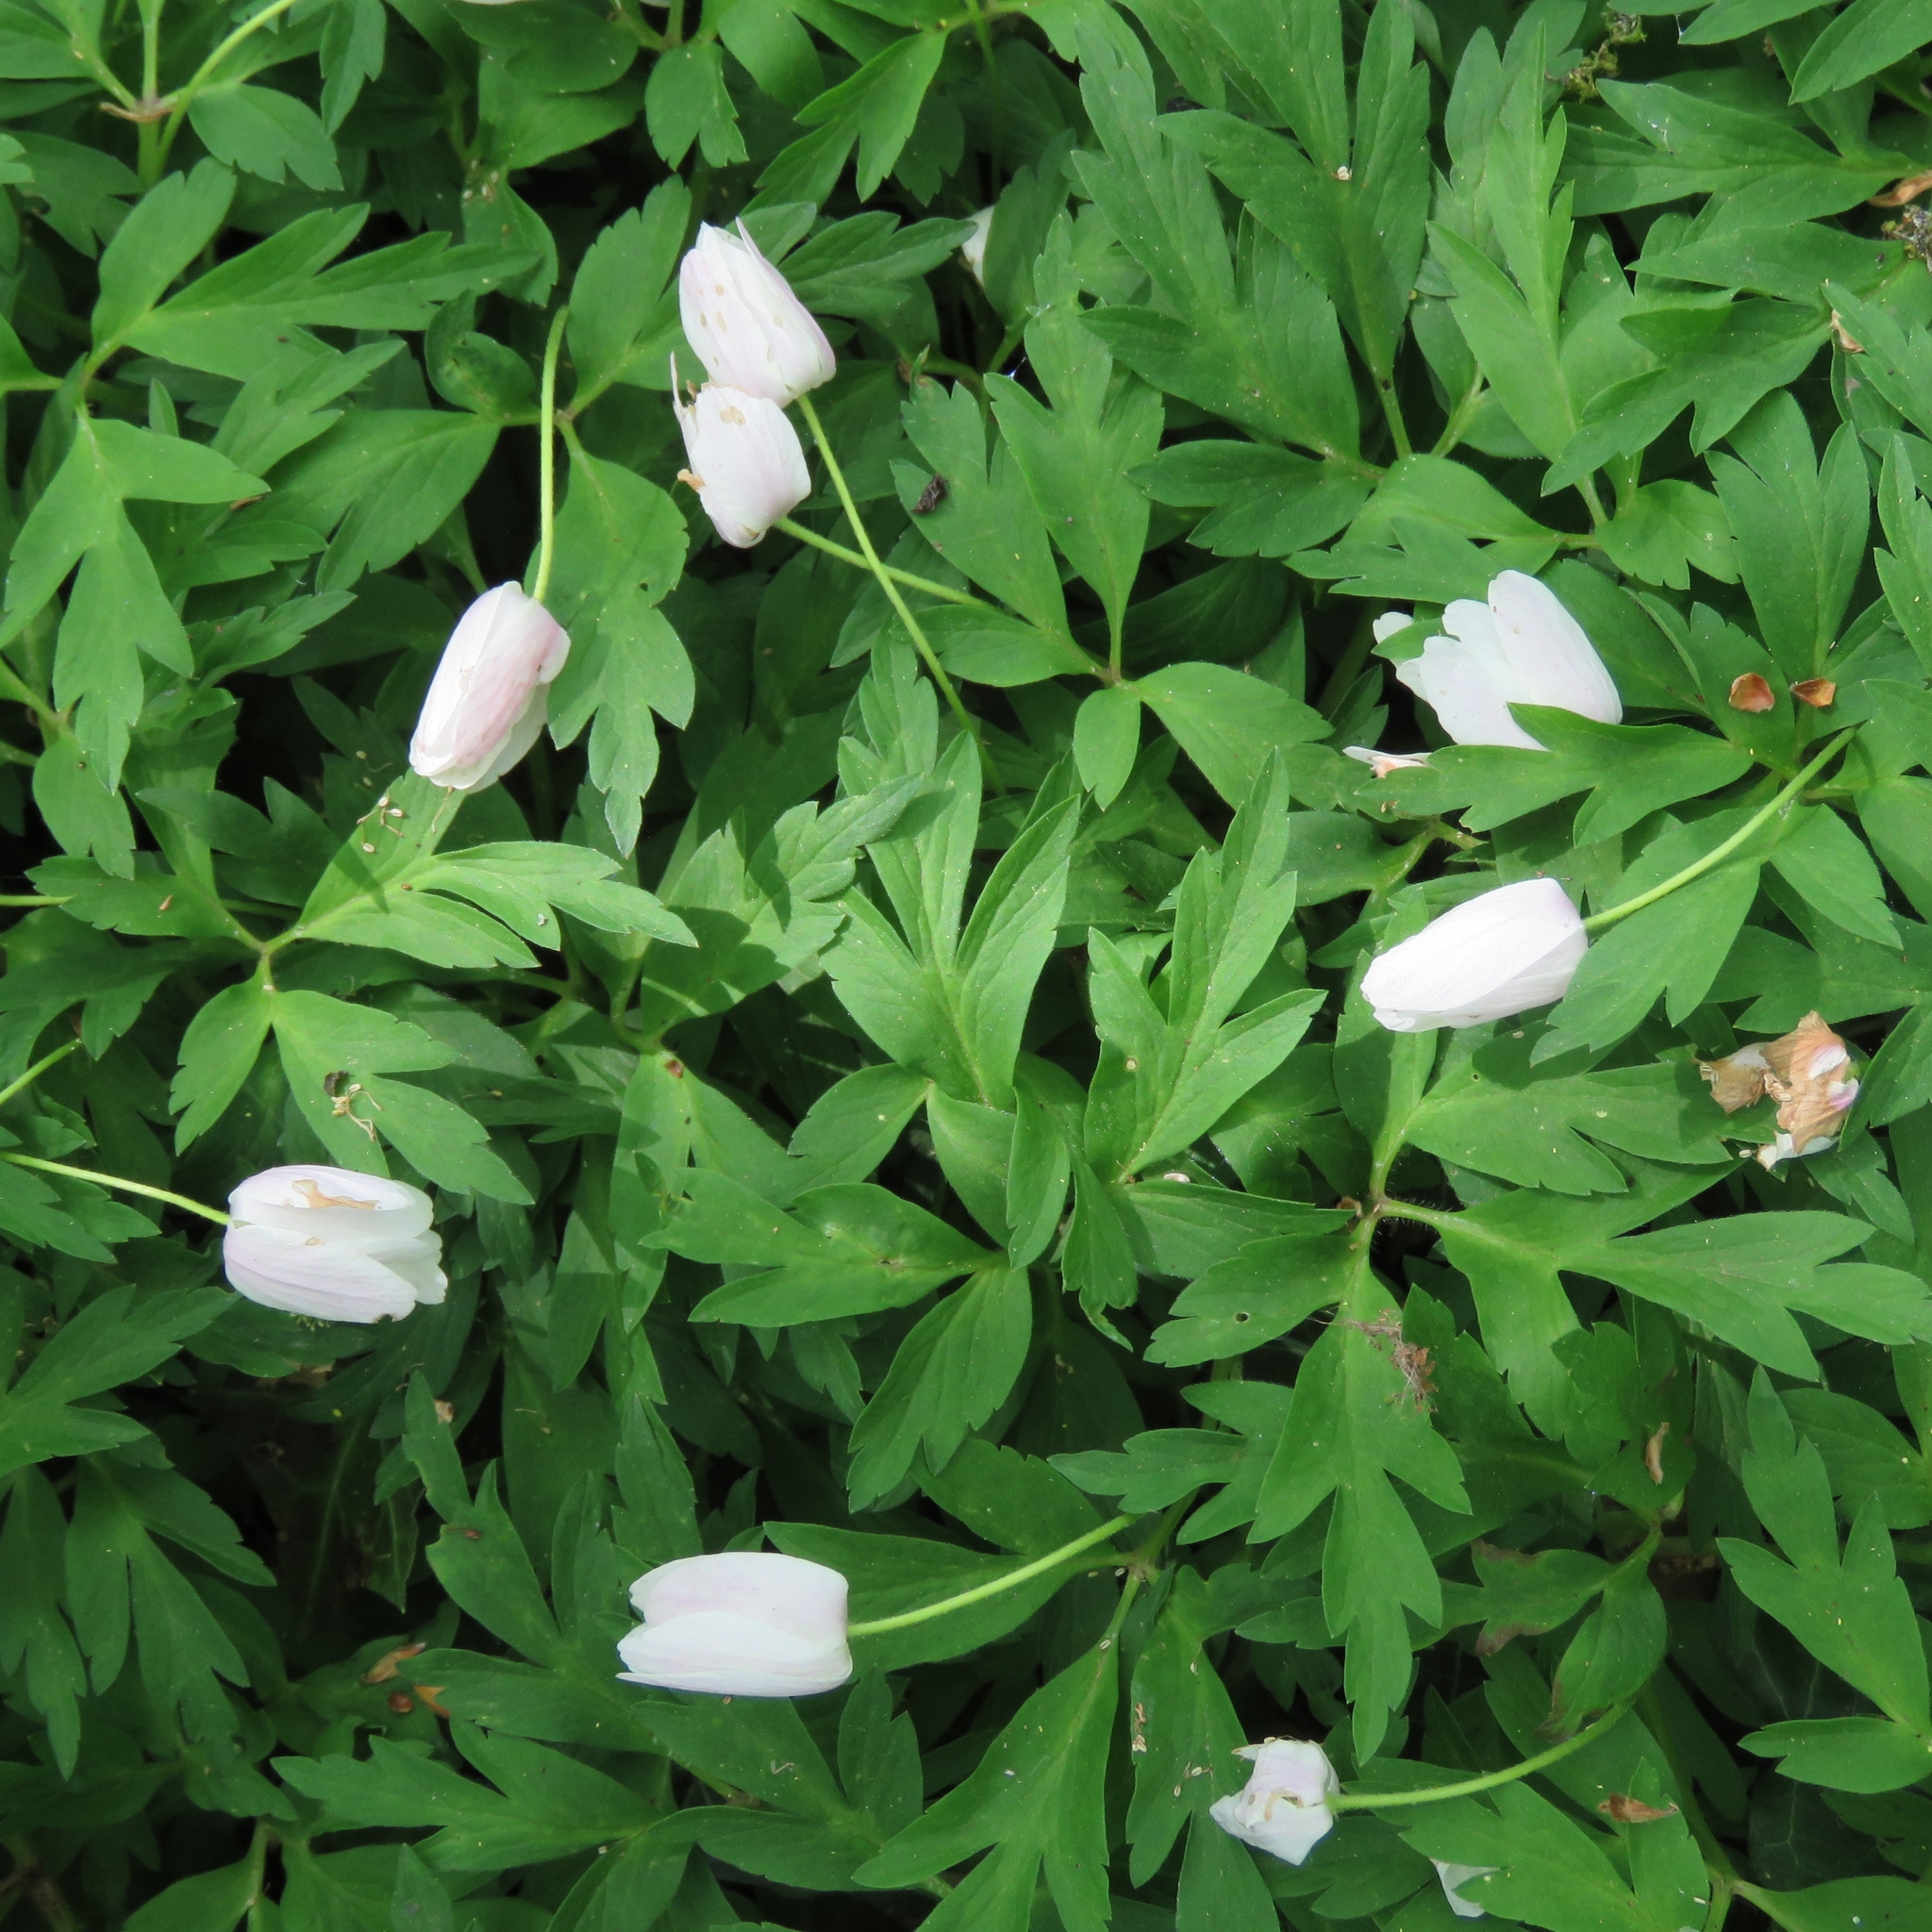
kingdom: Plantae
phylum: Tracheophyta
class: Magnoliopsida
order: Ranunculales
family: Ranunculaceae
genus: Anemone
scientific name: Anemone nemorosa
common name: Wood anemone
